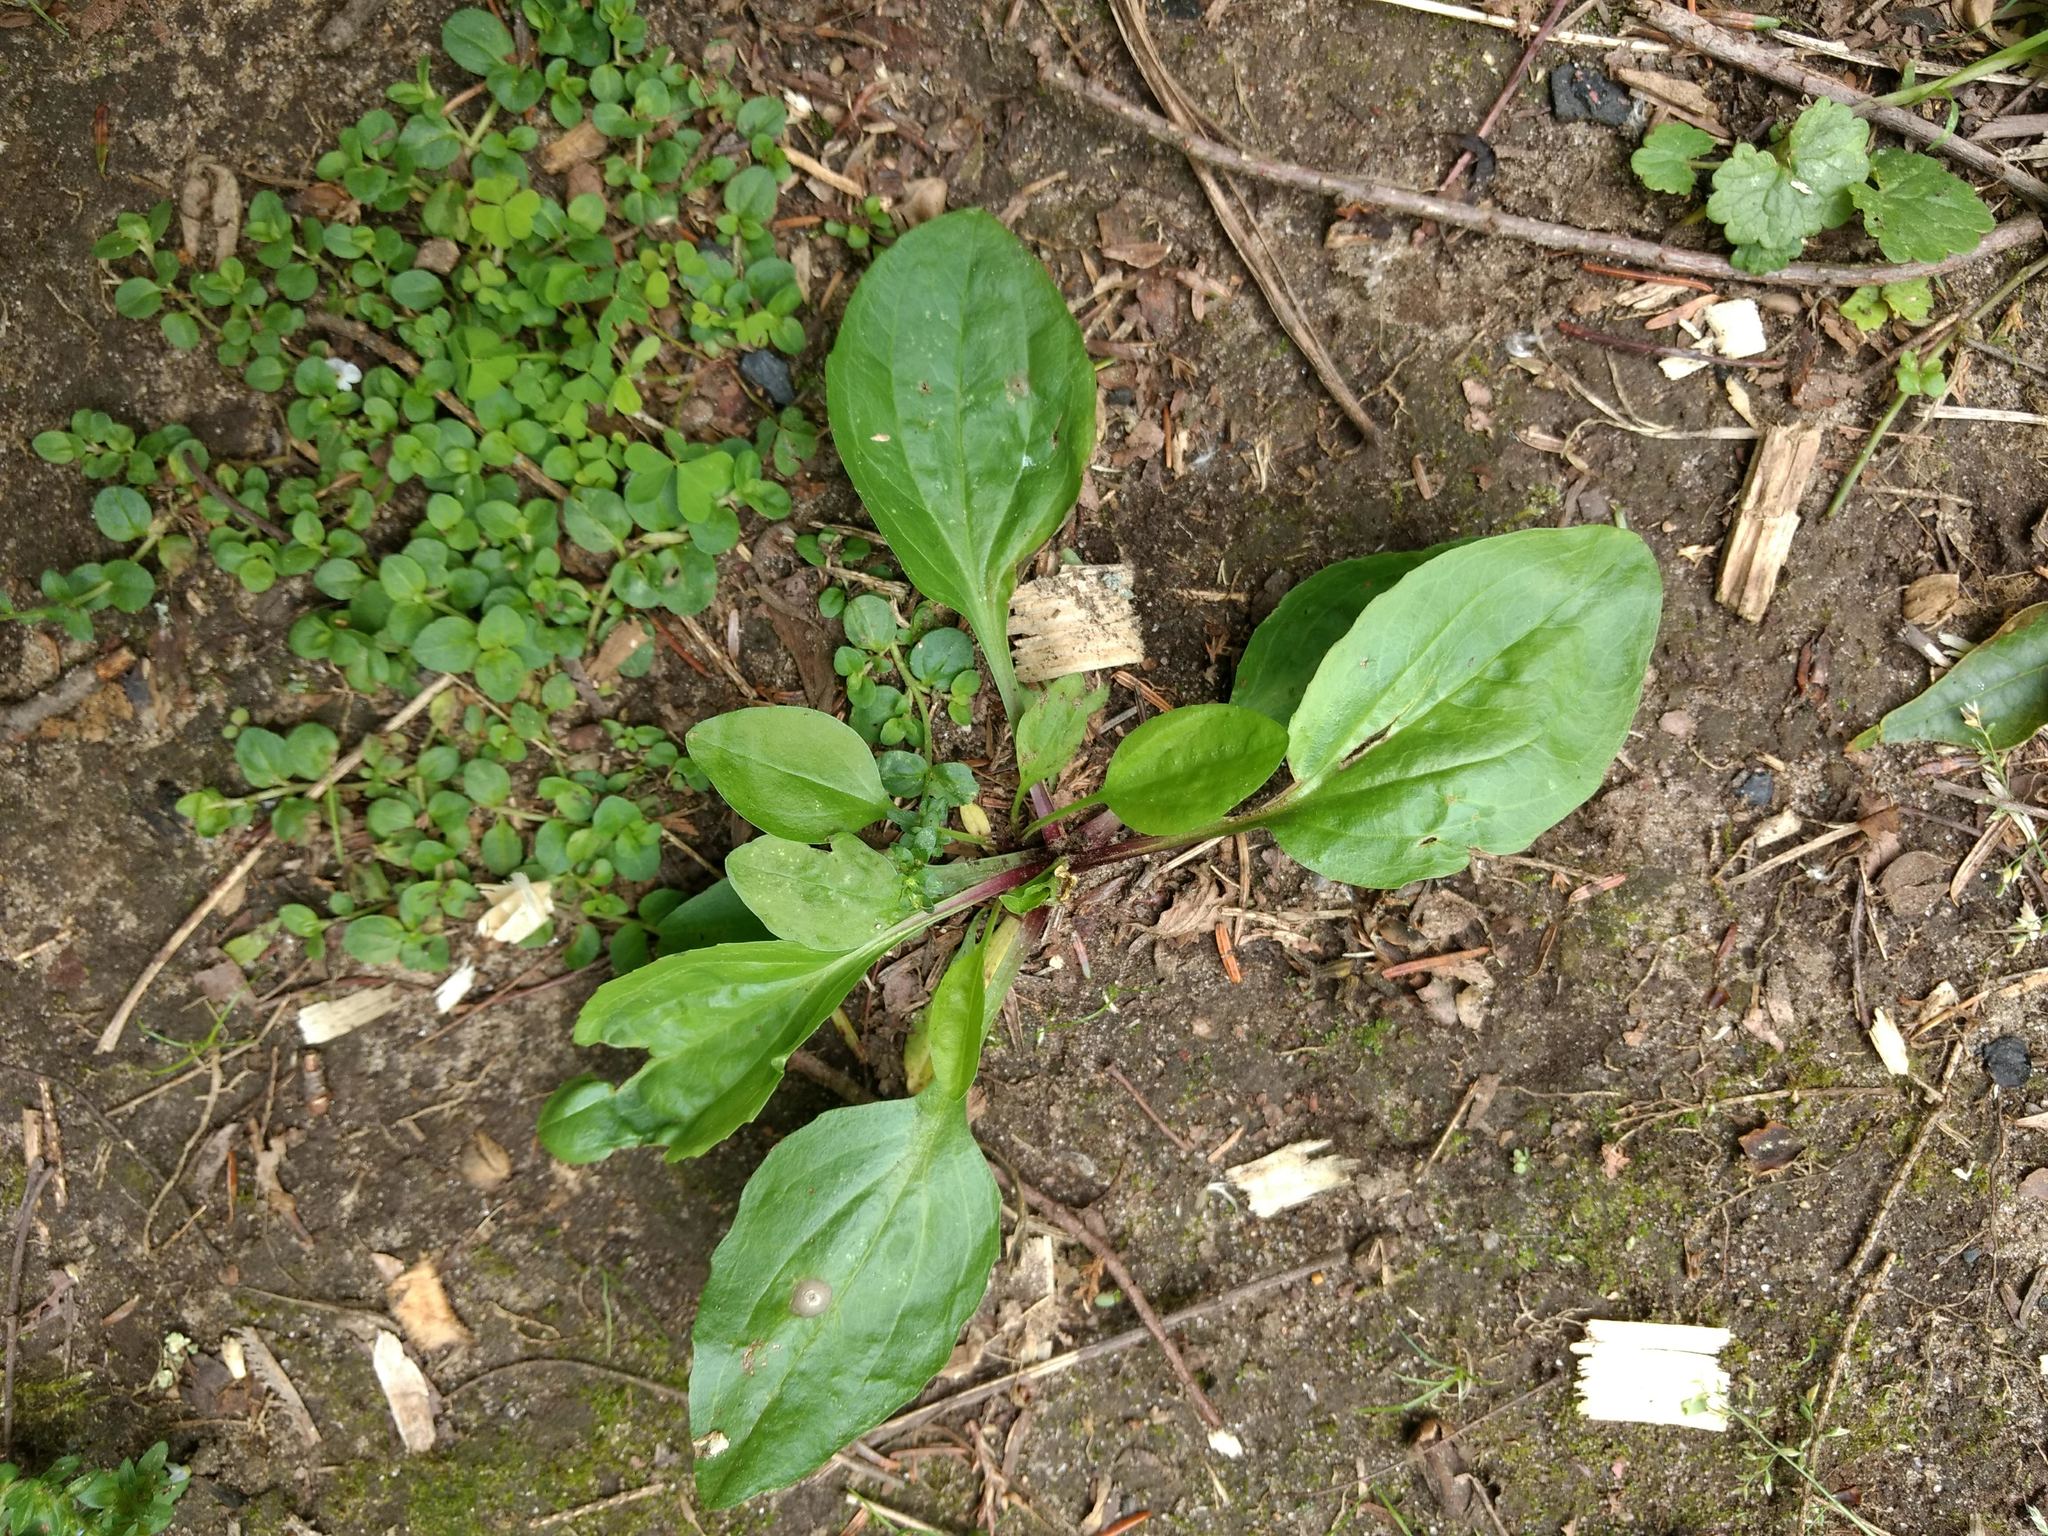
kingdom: Plantae
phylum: Tracheophyta
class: Magnoliopsida
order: Lamiales
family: Plantaginaceae
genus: Plantago
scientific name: Plantago rugelii
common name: American plantain
